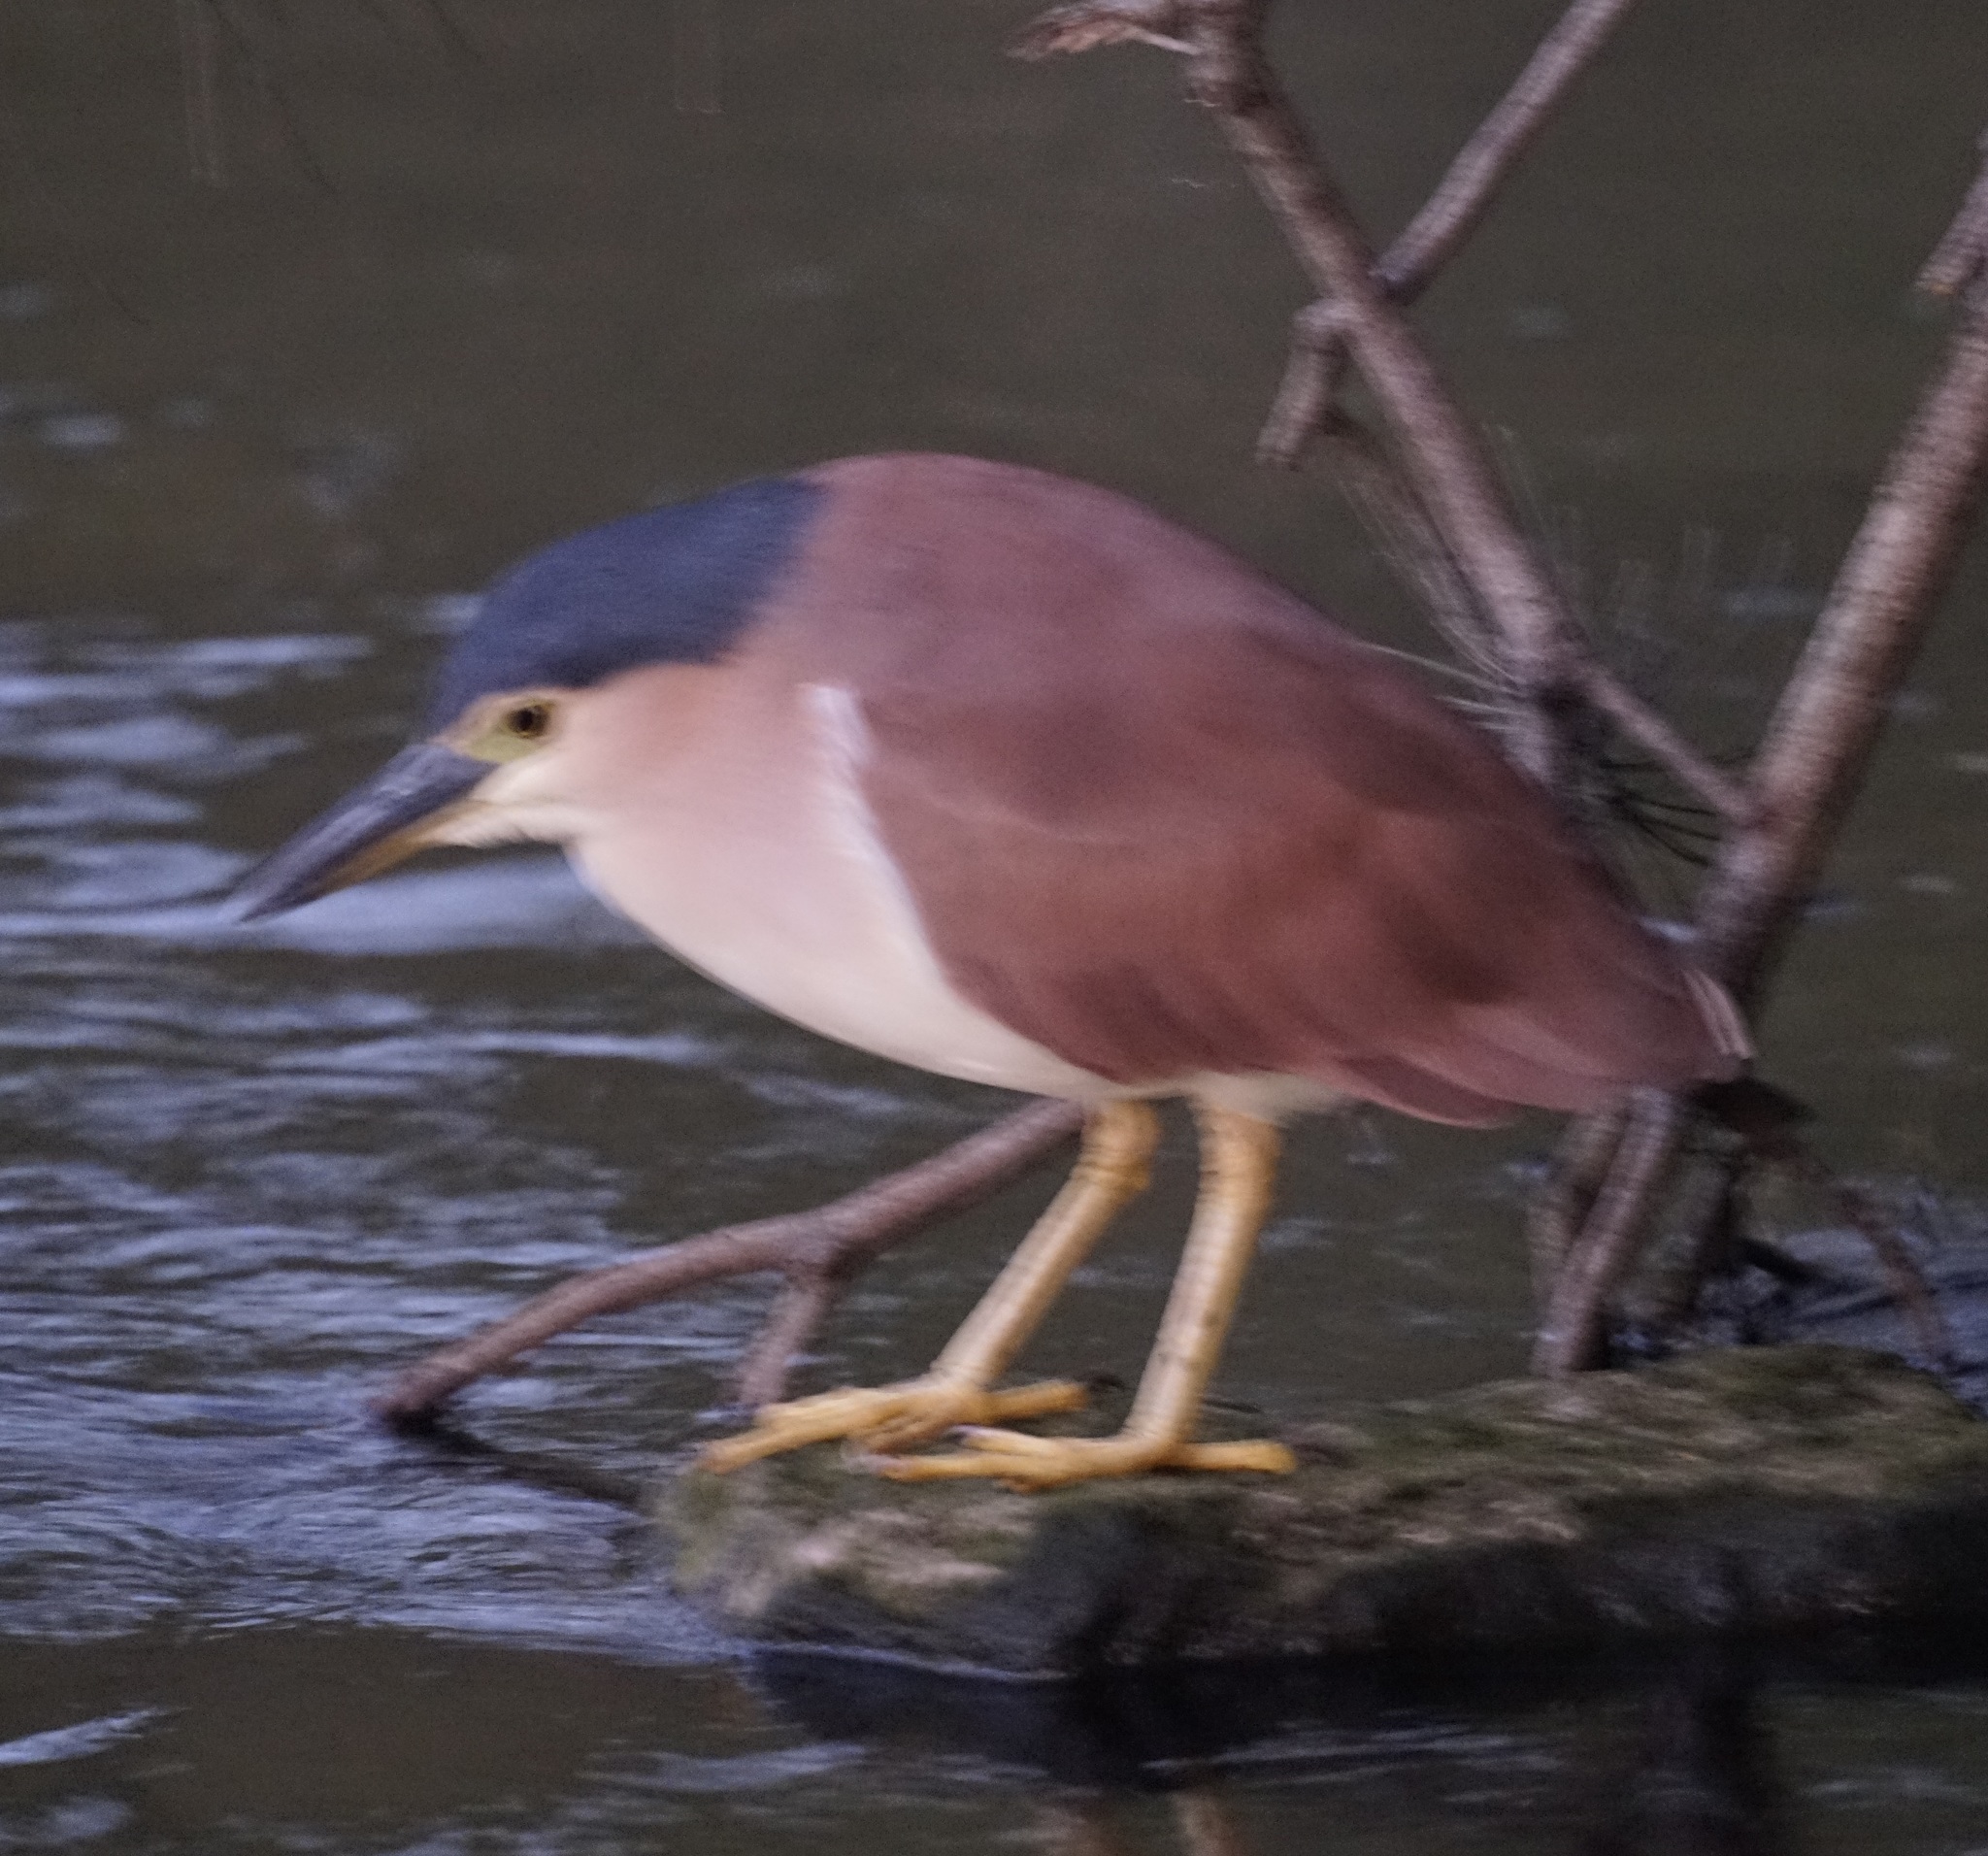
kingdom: Animalia
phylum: Chordata
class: Aves
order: Pelecaniformes
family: Ardeidae
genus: Nycticorax
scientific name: Nycticorax caledonicus
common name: Rufous night-heron
